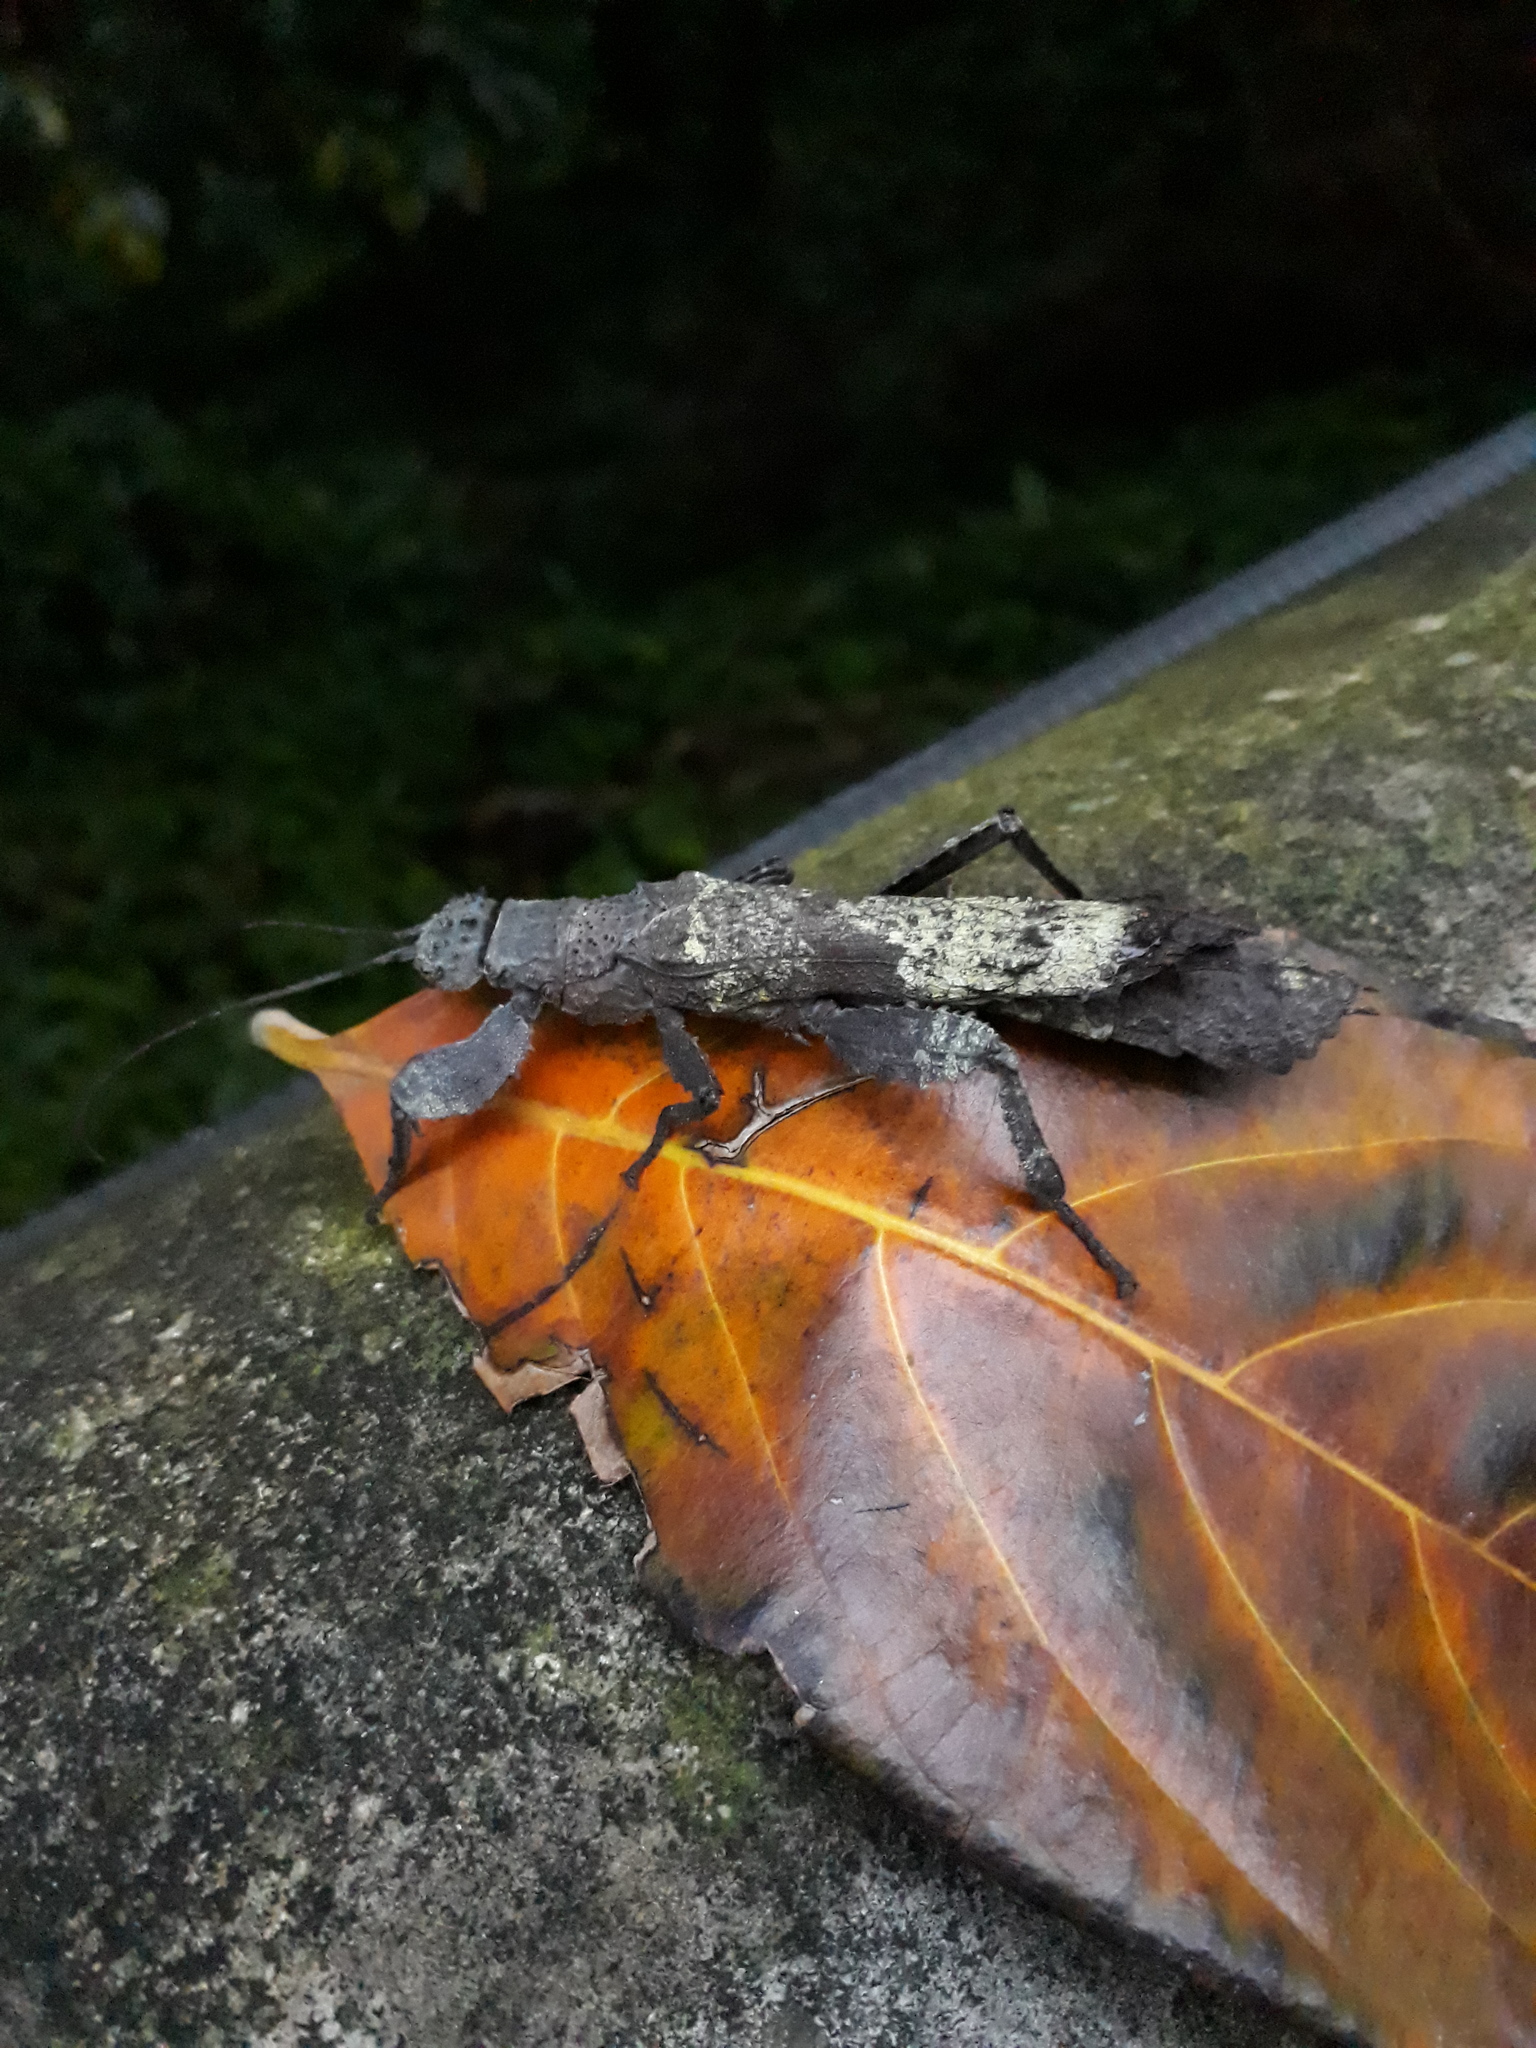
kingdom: Animalia
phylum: Arthropoda
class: Insecta
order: Phasmida
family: Prisopodidae
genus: Prisopus
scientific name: Prisopus ohrtmanni
